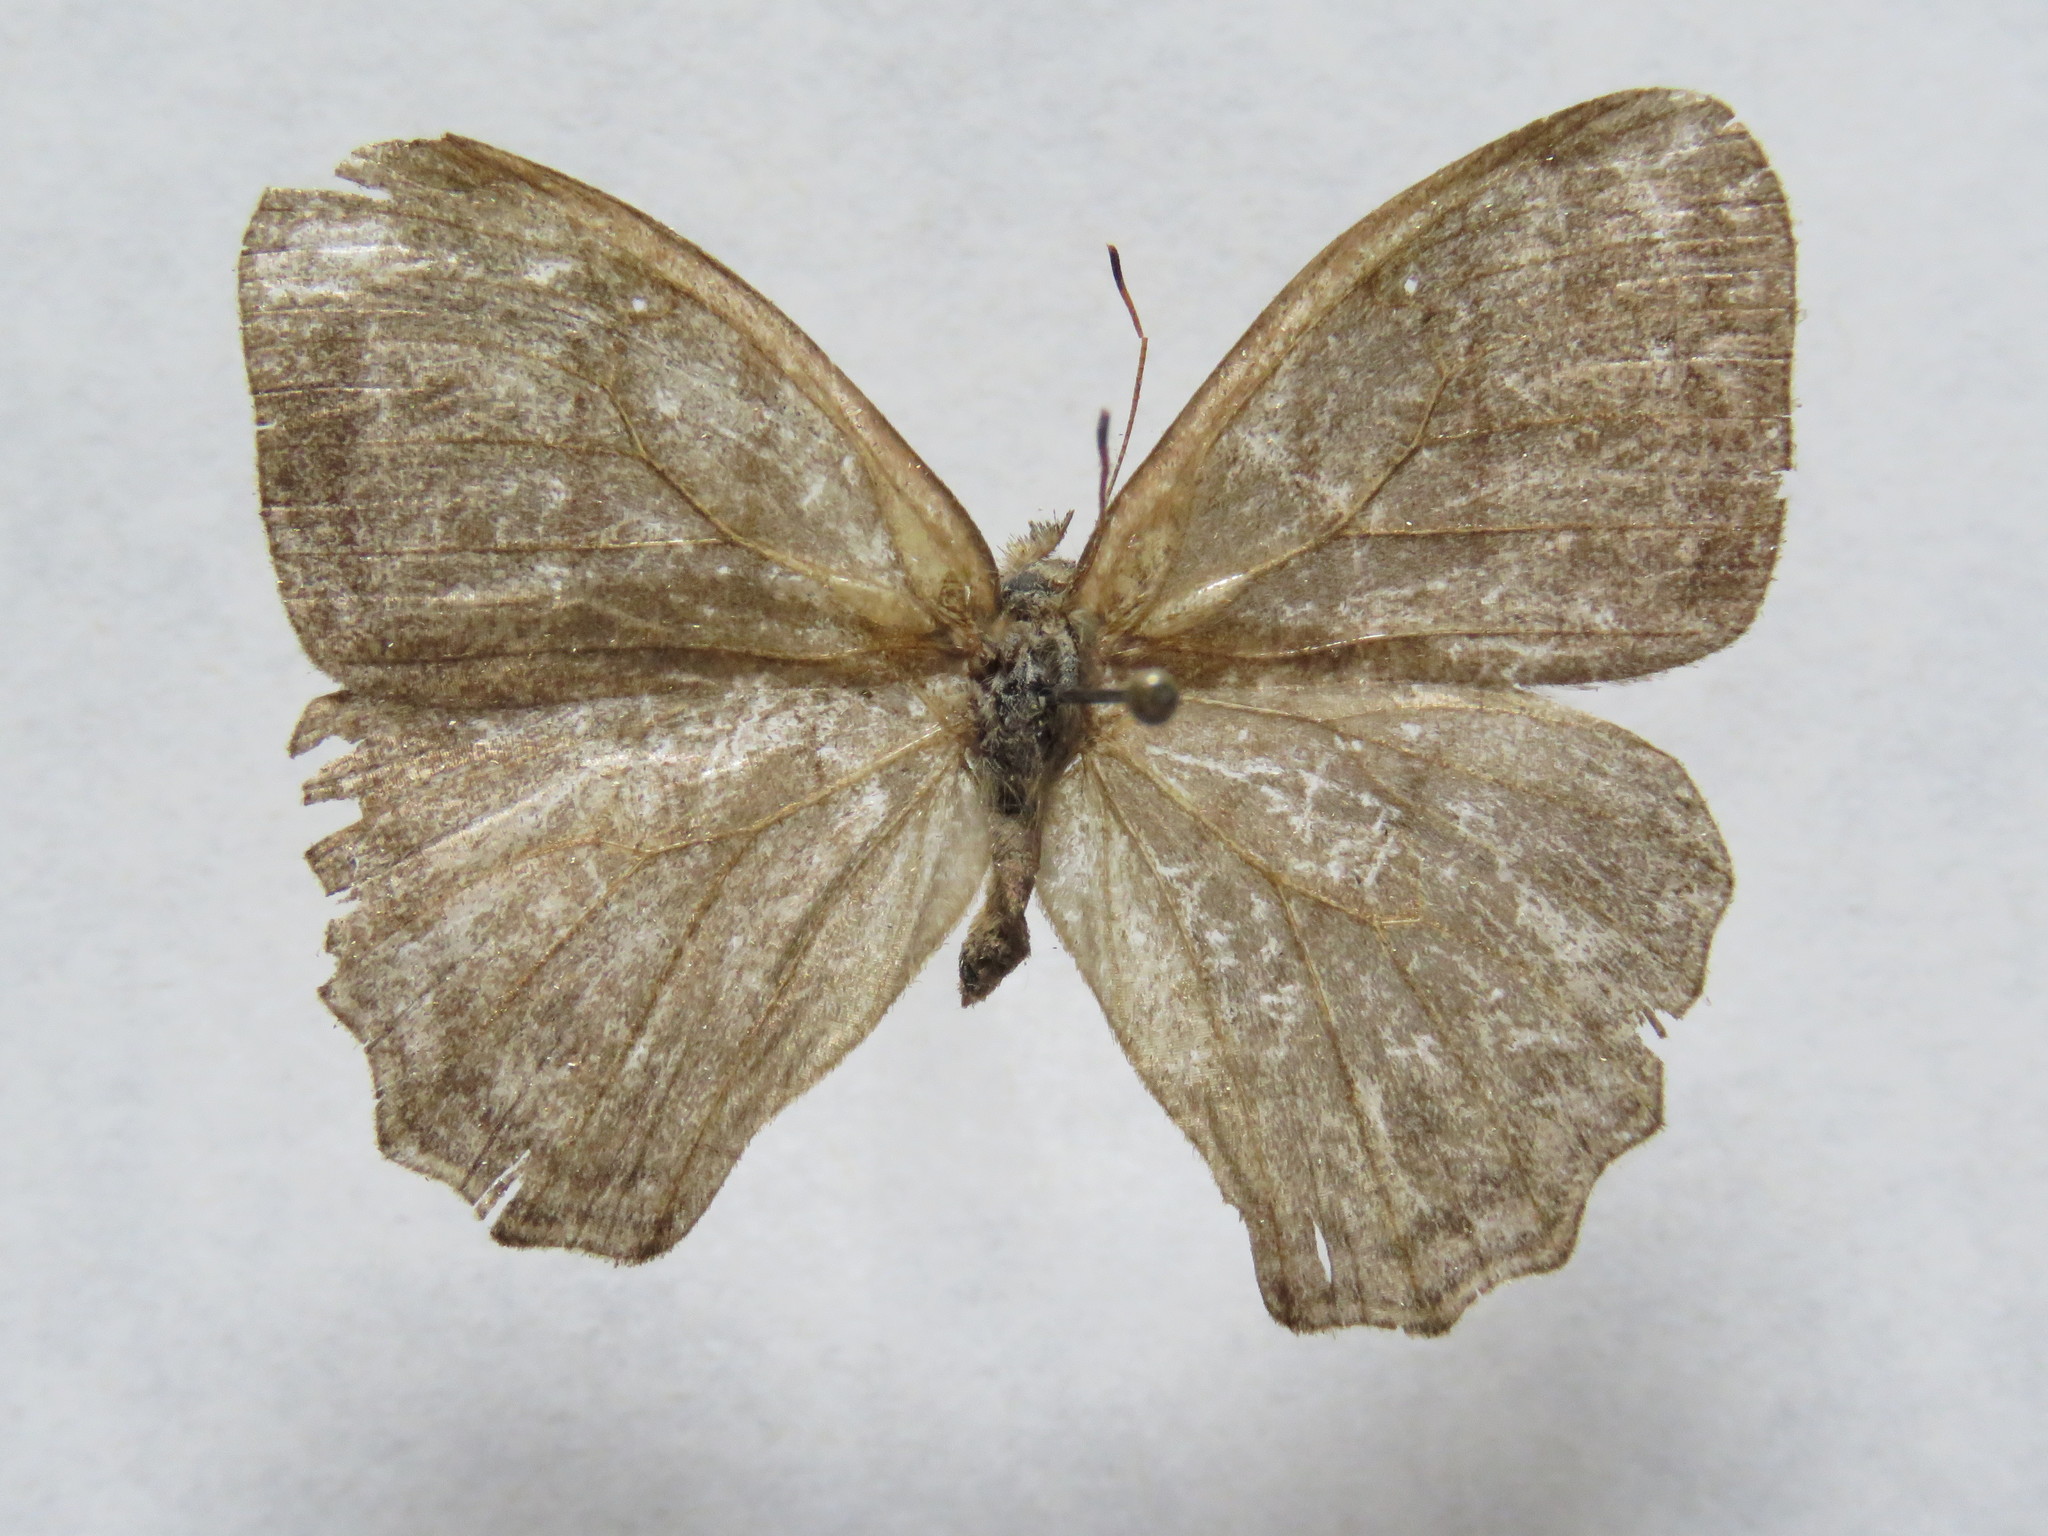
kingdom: Animalia
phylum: Arthropoda
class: Insecta
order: Lepidoptera
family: Nymphalidae
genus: Magneuptychia
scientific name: Magneuptychia libye
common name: Blue-gray satyr
